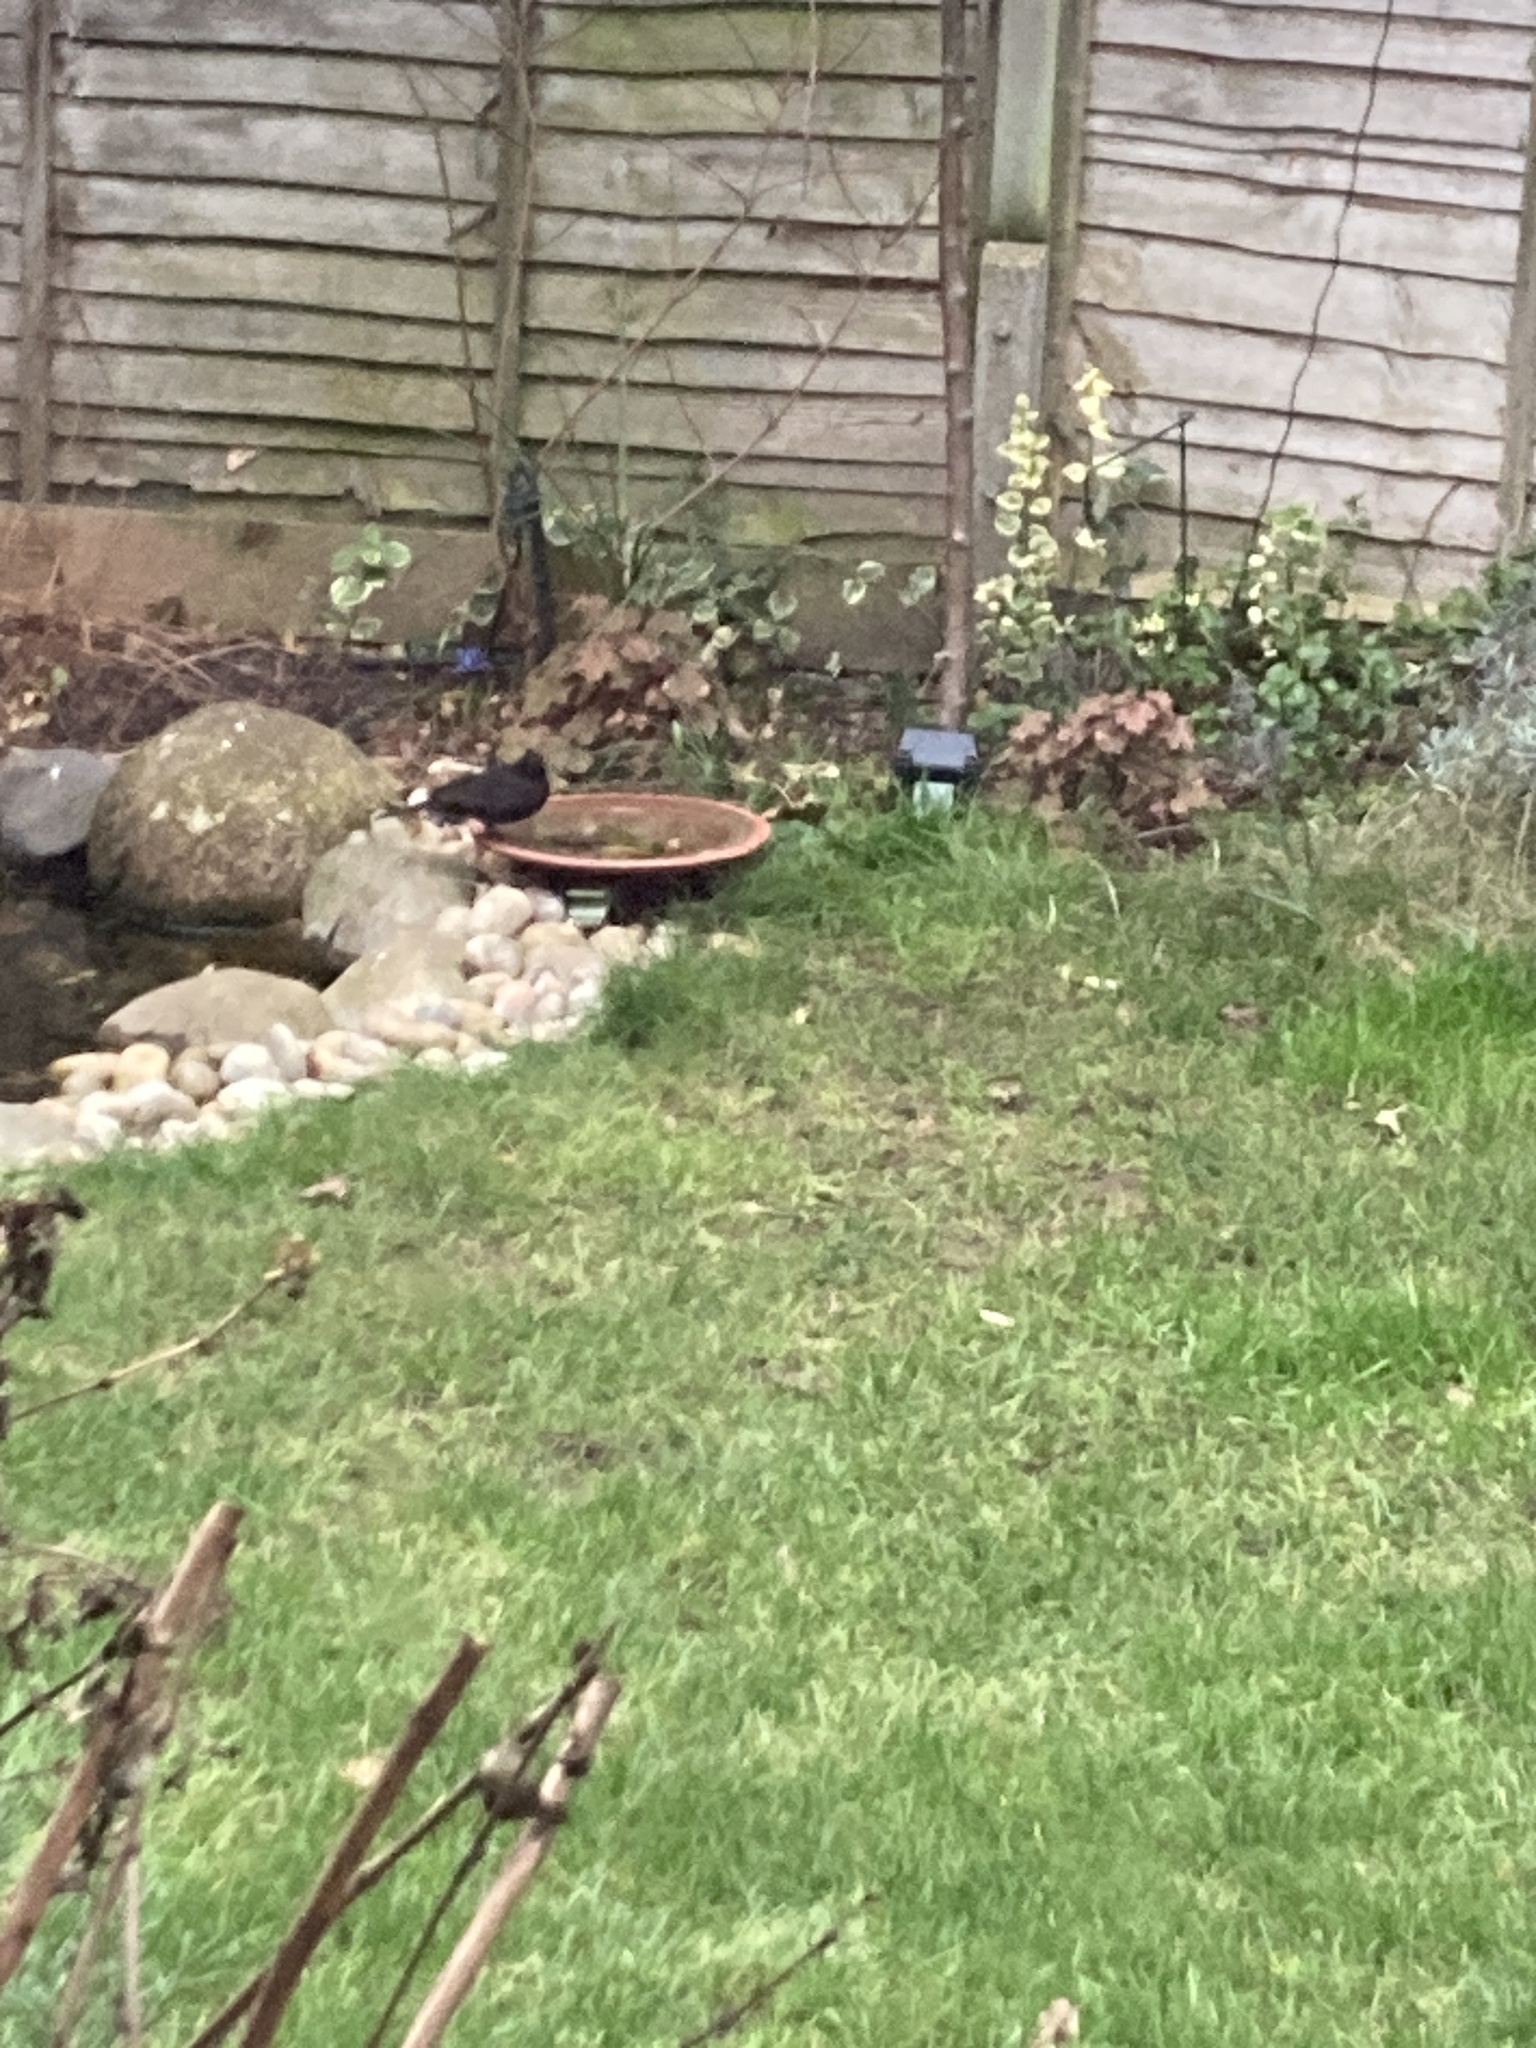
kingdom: Animalia
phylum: Chordata
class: Aves
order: Passeriformes
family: Turdidae
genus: Turdus
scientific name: Turdus merula
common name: Common blackbird
